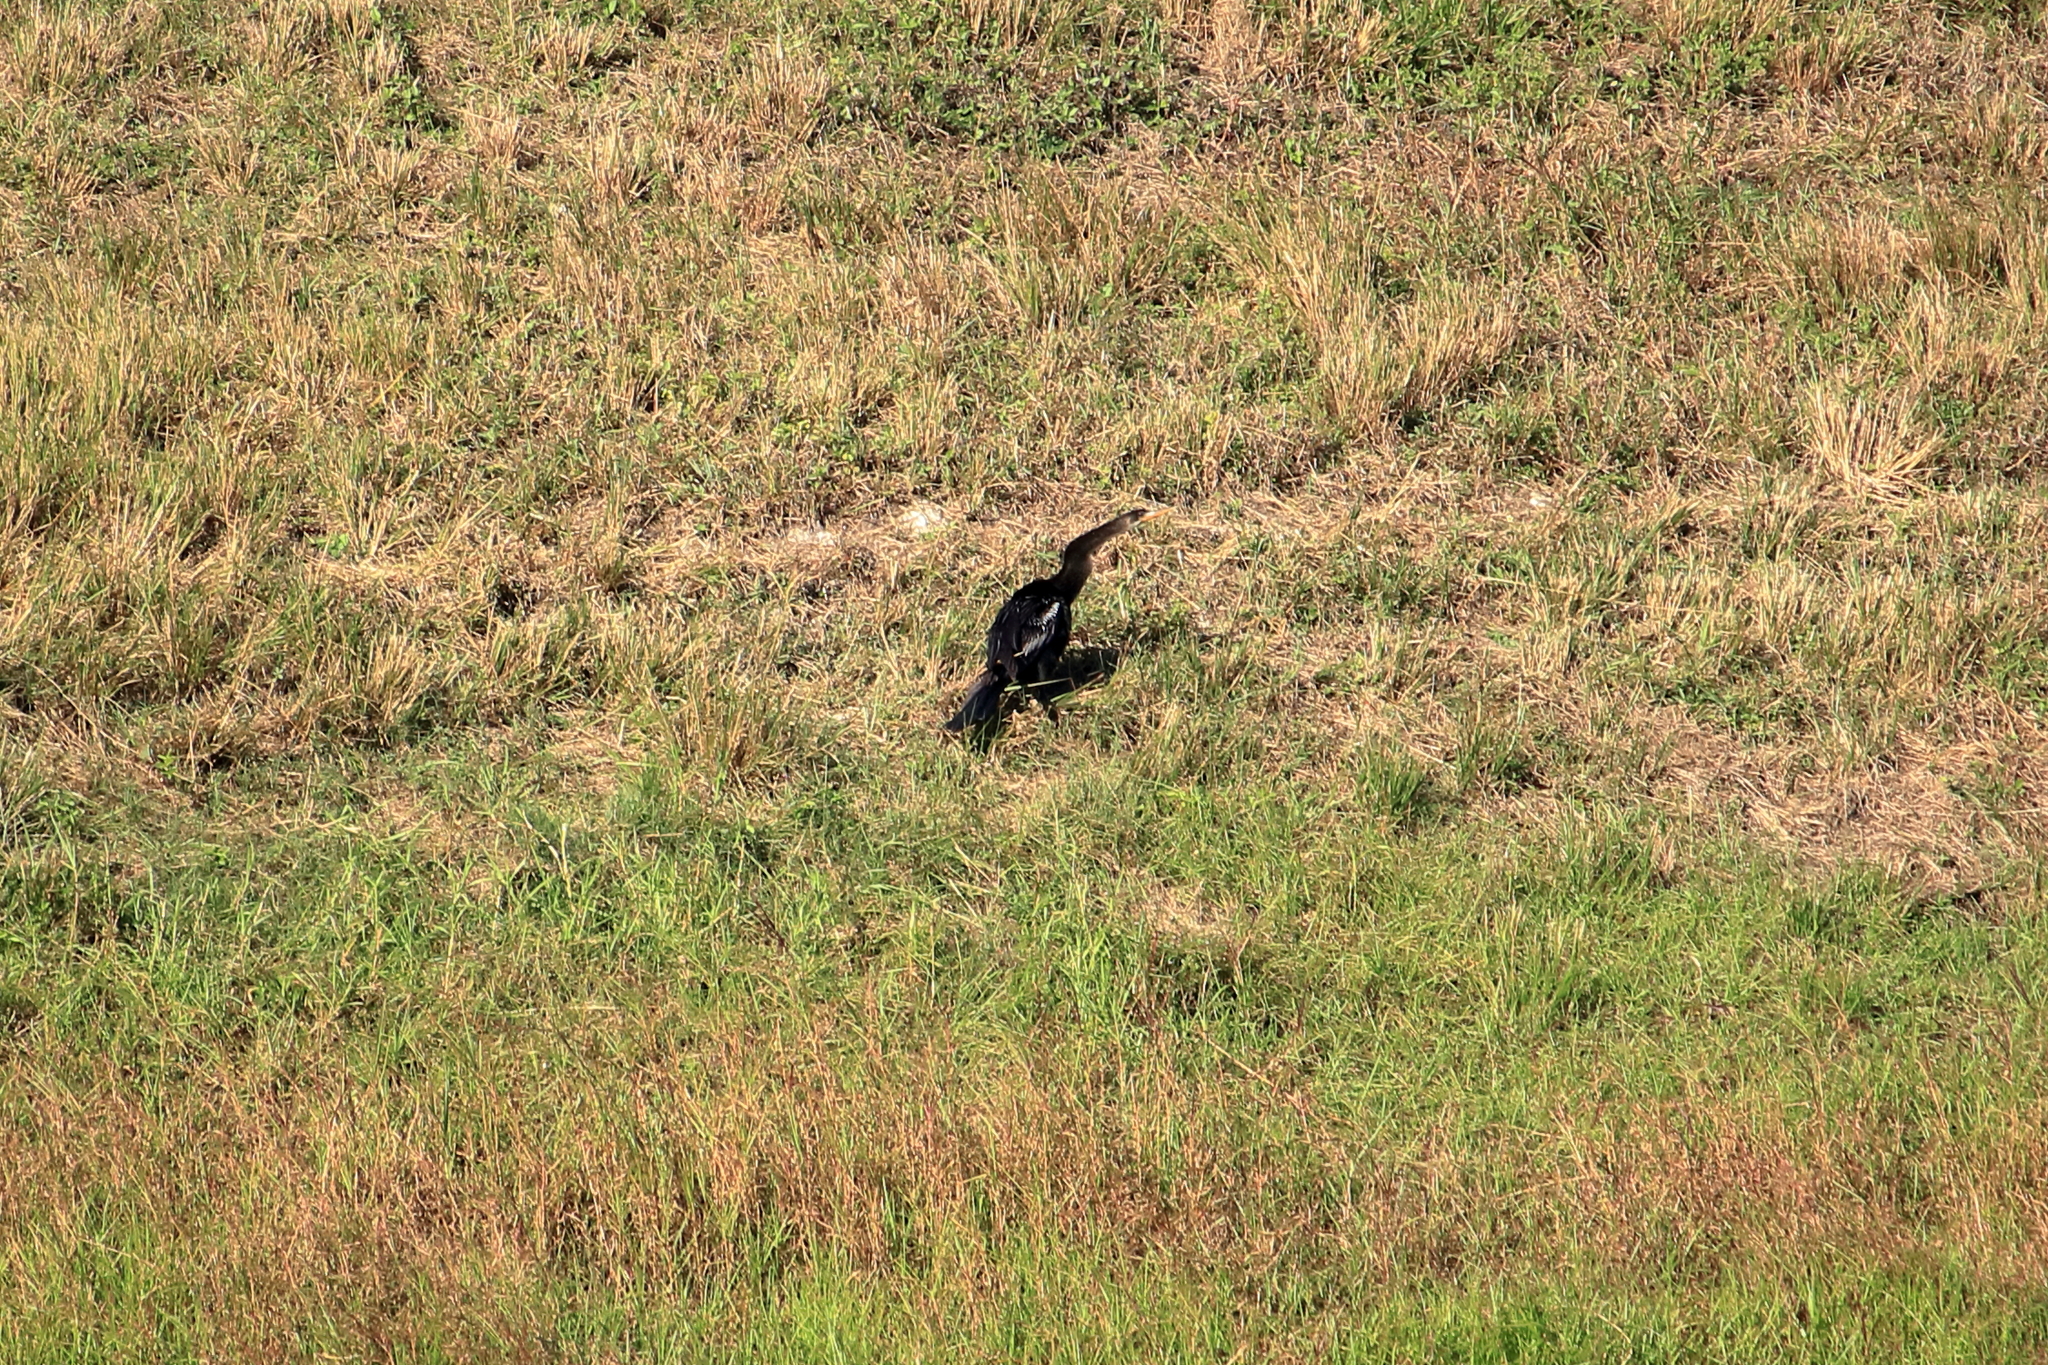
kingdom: Animalia
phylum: Chordata
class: Aves
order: Suliformes
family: Anhingidae
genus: Anhinga
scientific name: Anhinga anhinga
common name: Anhinga
